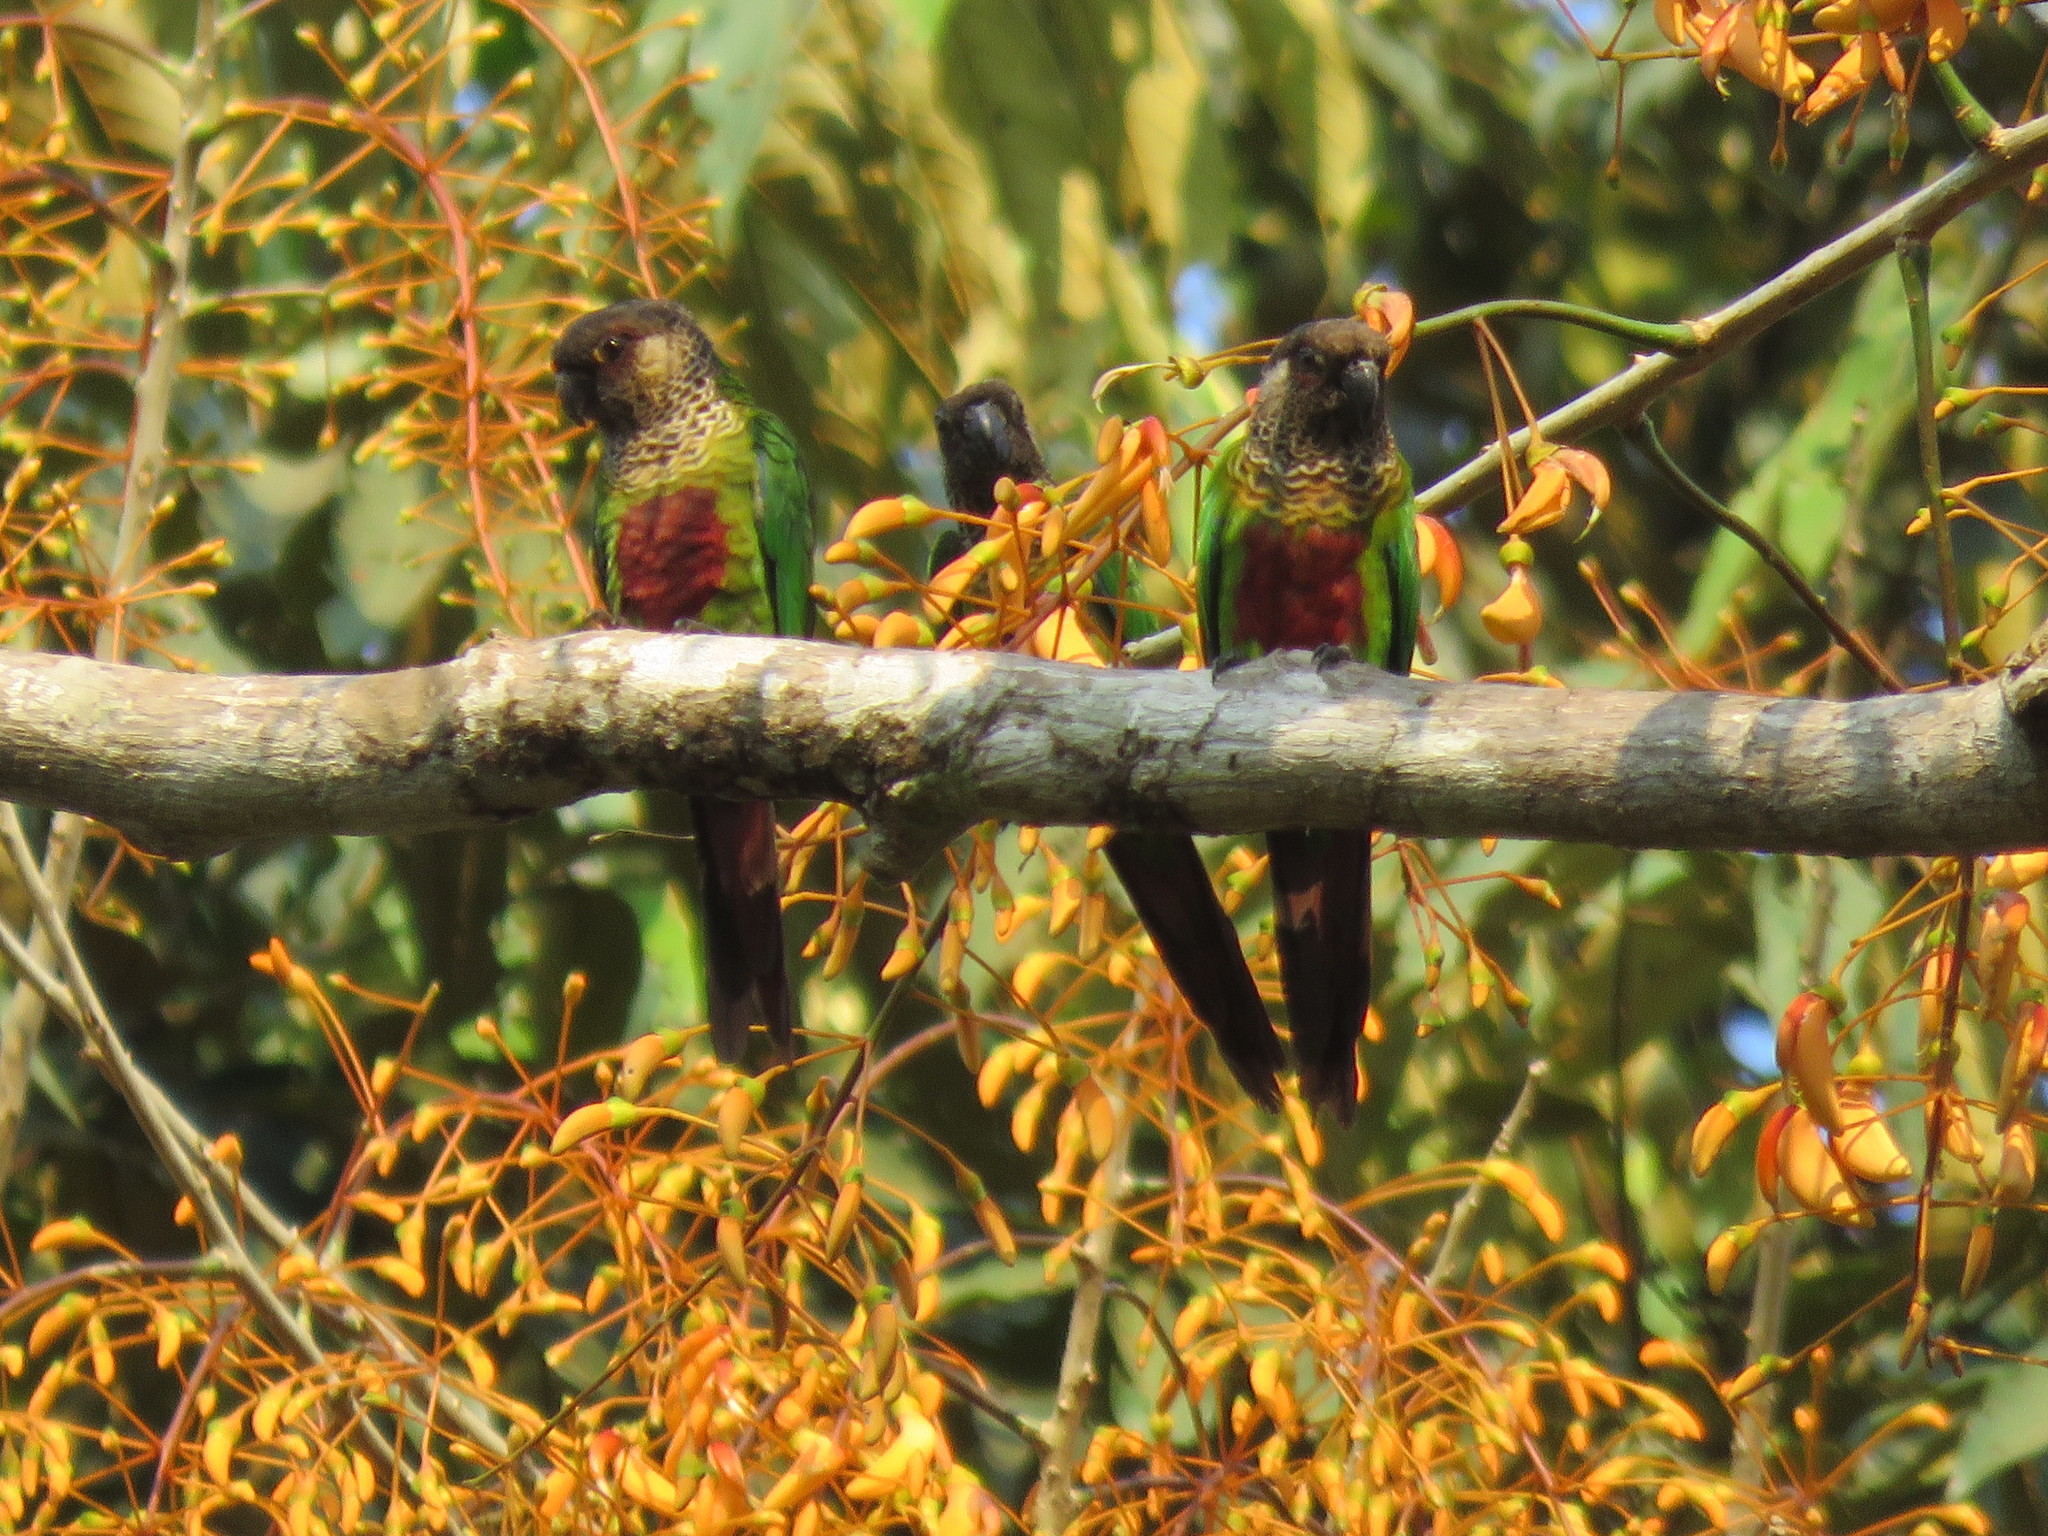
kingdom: Animalia
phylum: Chordata
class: Aves
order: Psittaciformes
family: Psittacidae
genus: Pyrrhura
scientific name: Pyrrhura picta
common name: Painted parakeet
